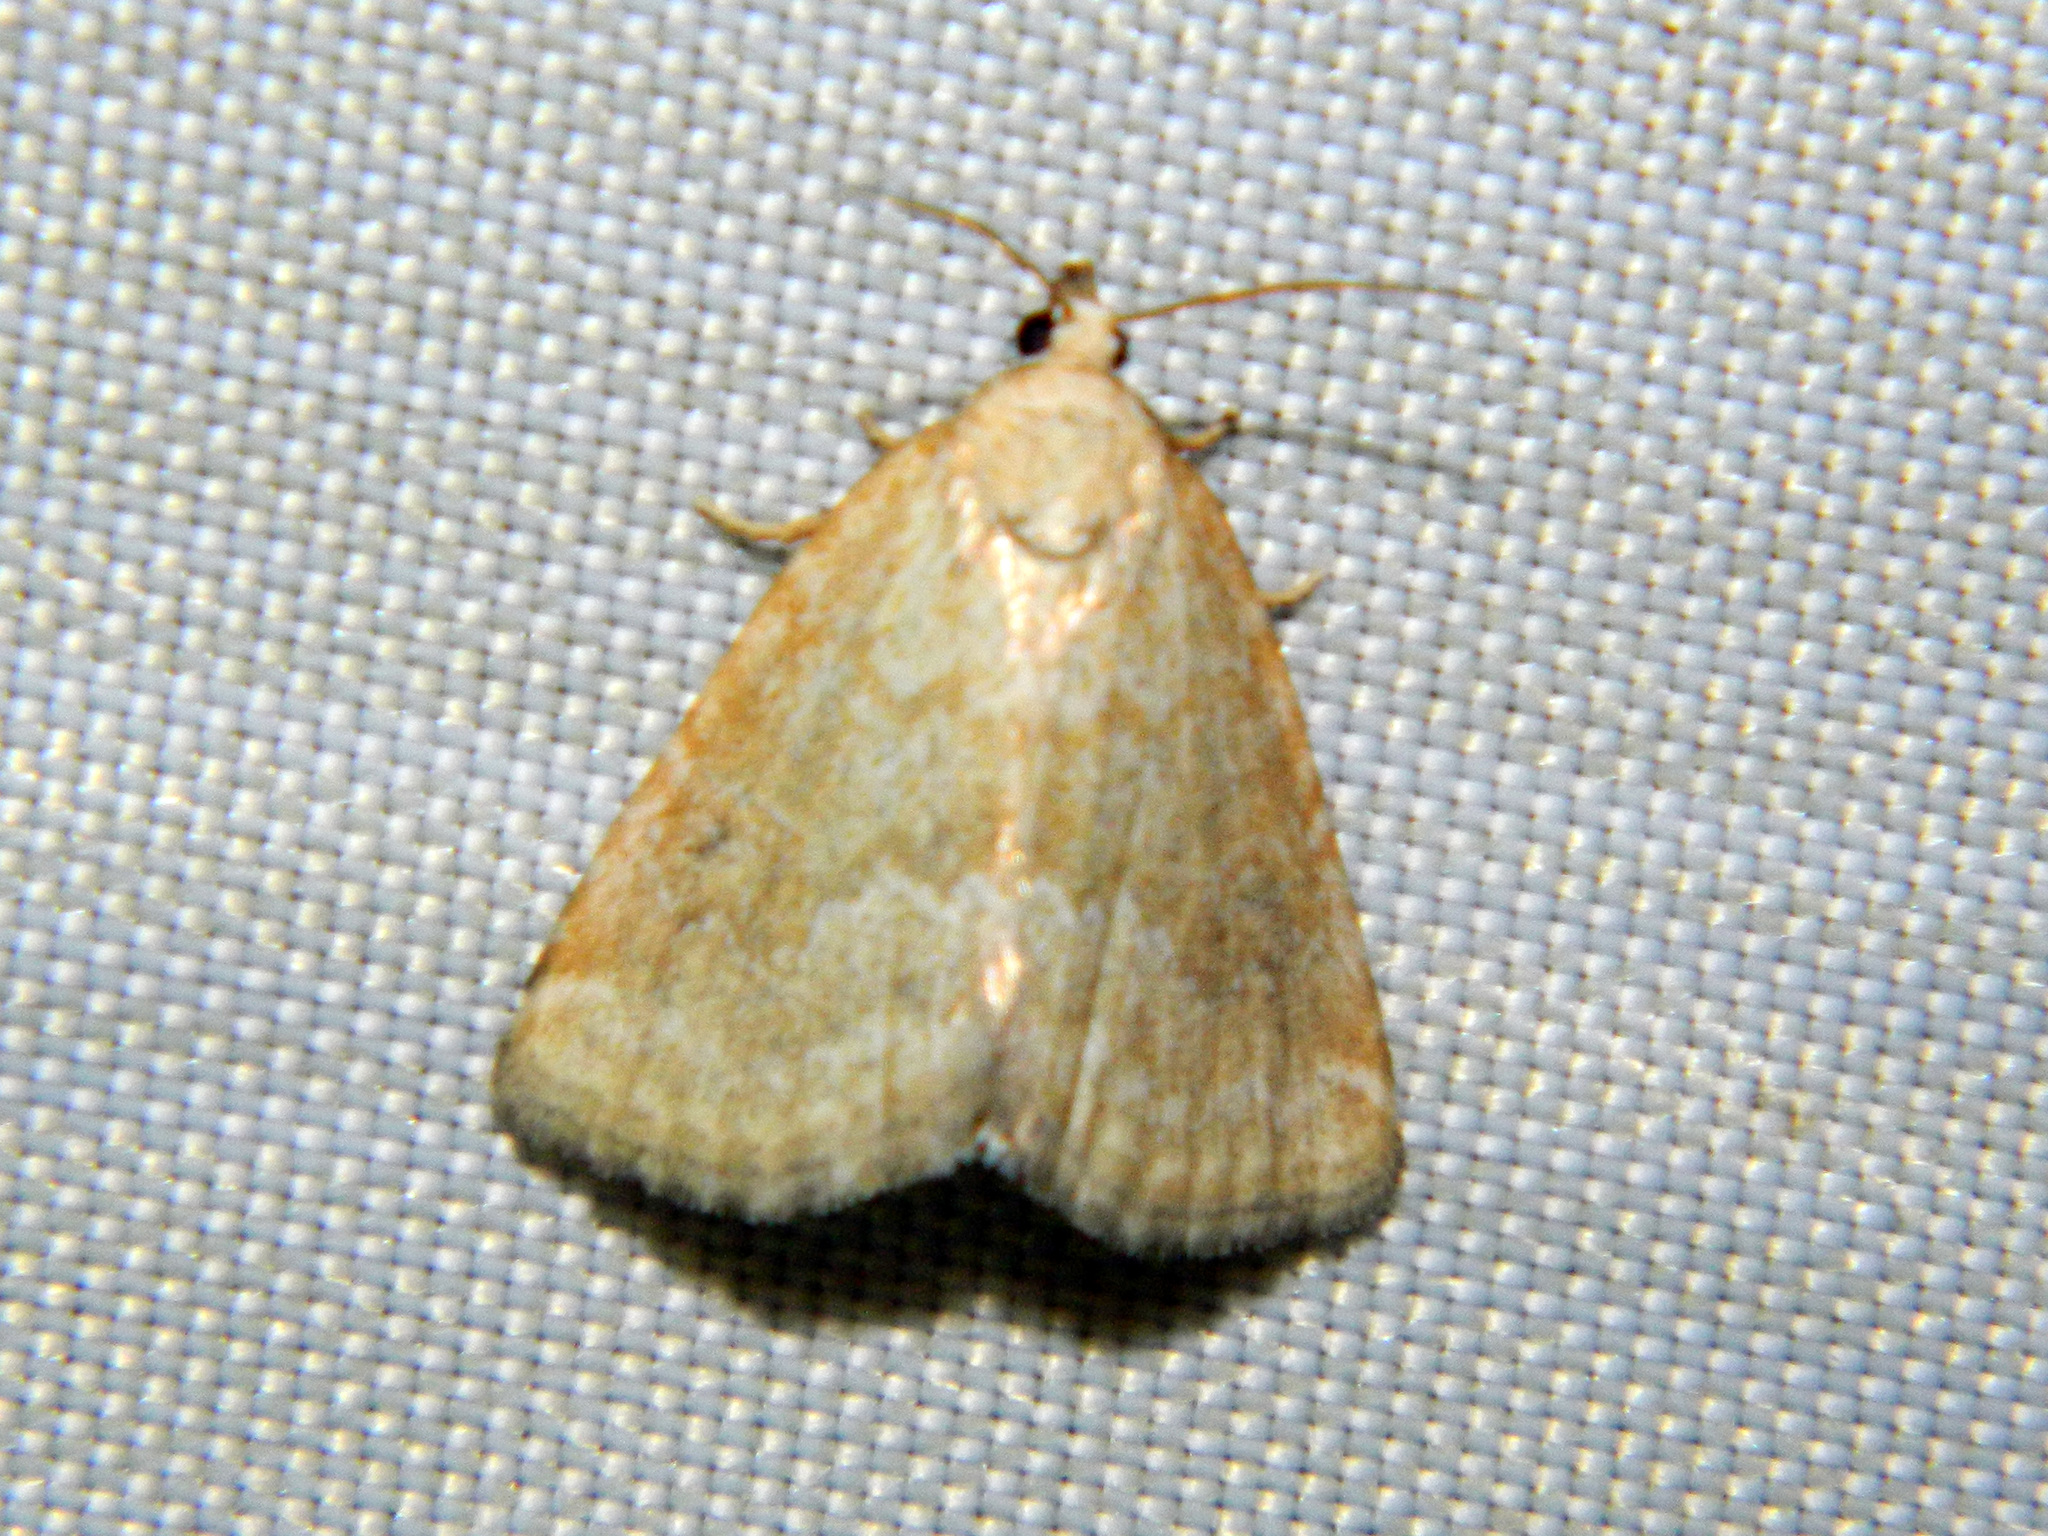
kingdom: Animalia
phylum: Arthropoda
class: Insecta
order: Lepidoptera
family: Noctuidae
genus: Protodeltote
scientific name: Protodeltote albidula
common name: Pale glyph
